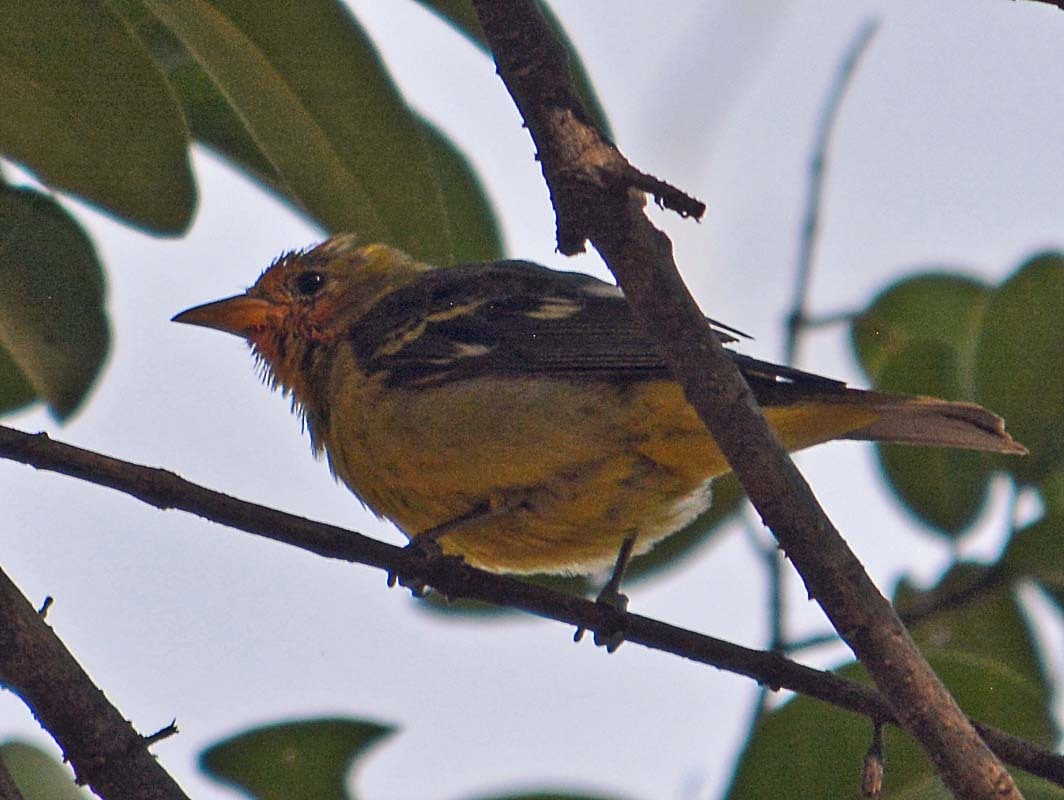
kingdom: Animalia
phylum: Chordata
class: Aves
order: Passeriformes
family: Cardinalidae
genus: Piranga
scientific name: Piranga ludoviciana
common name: Western tanager
